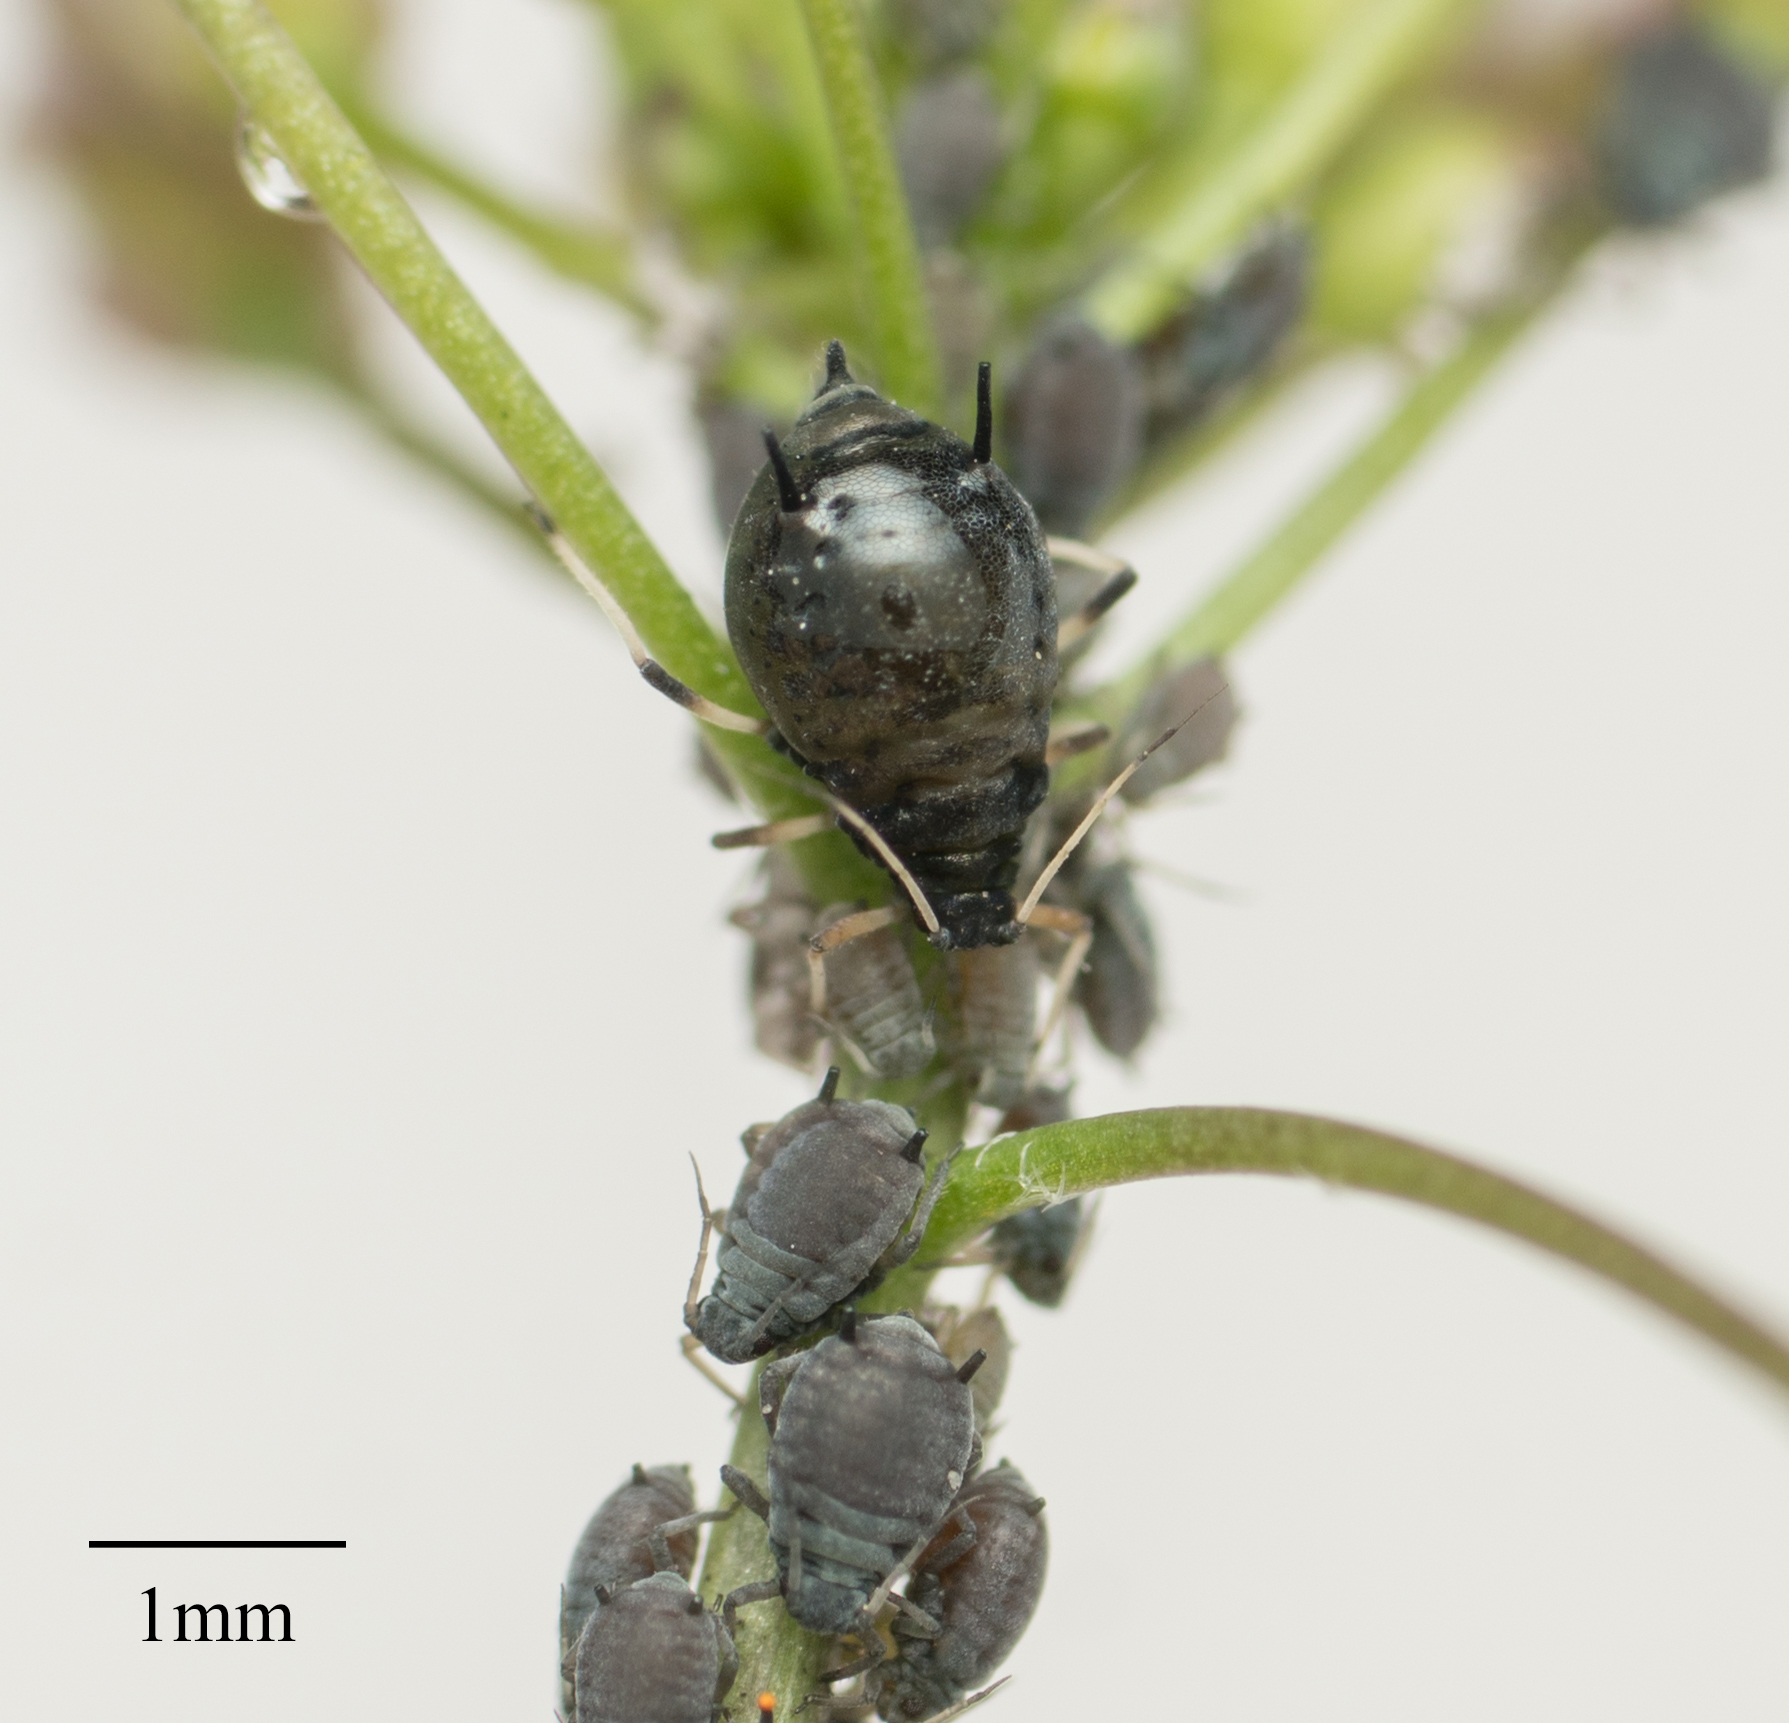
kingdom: Animalia
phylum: Arthropoda
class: Insecta
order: Hemiptera
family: Aphididae
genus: Aphis
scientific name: Aphis craccivora
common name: Cowpea aphid
